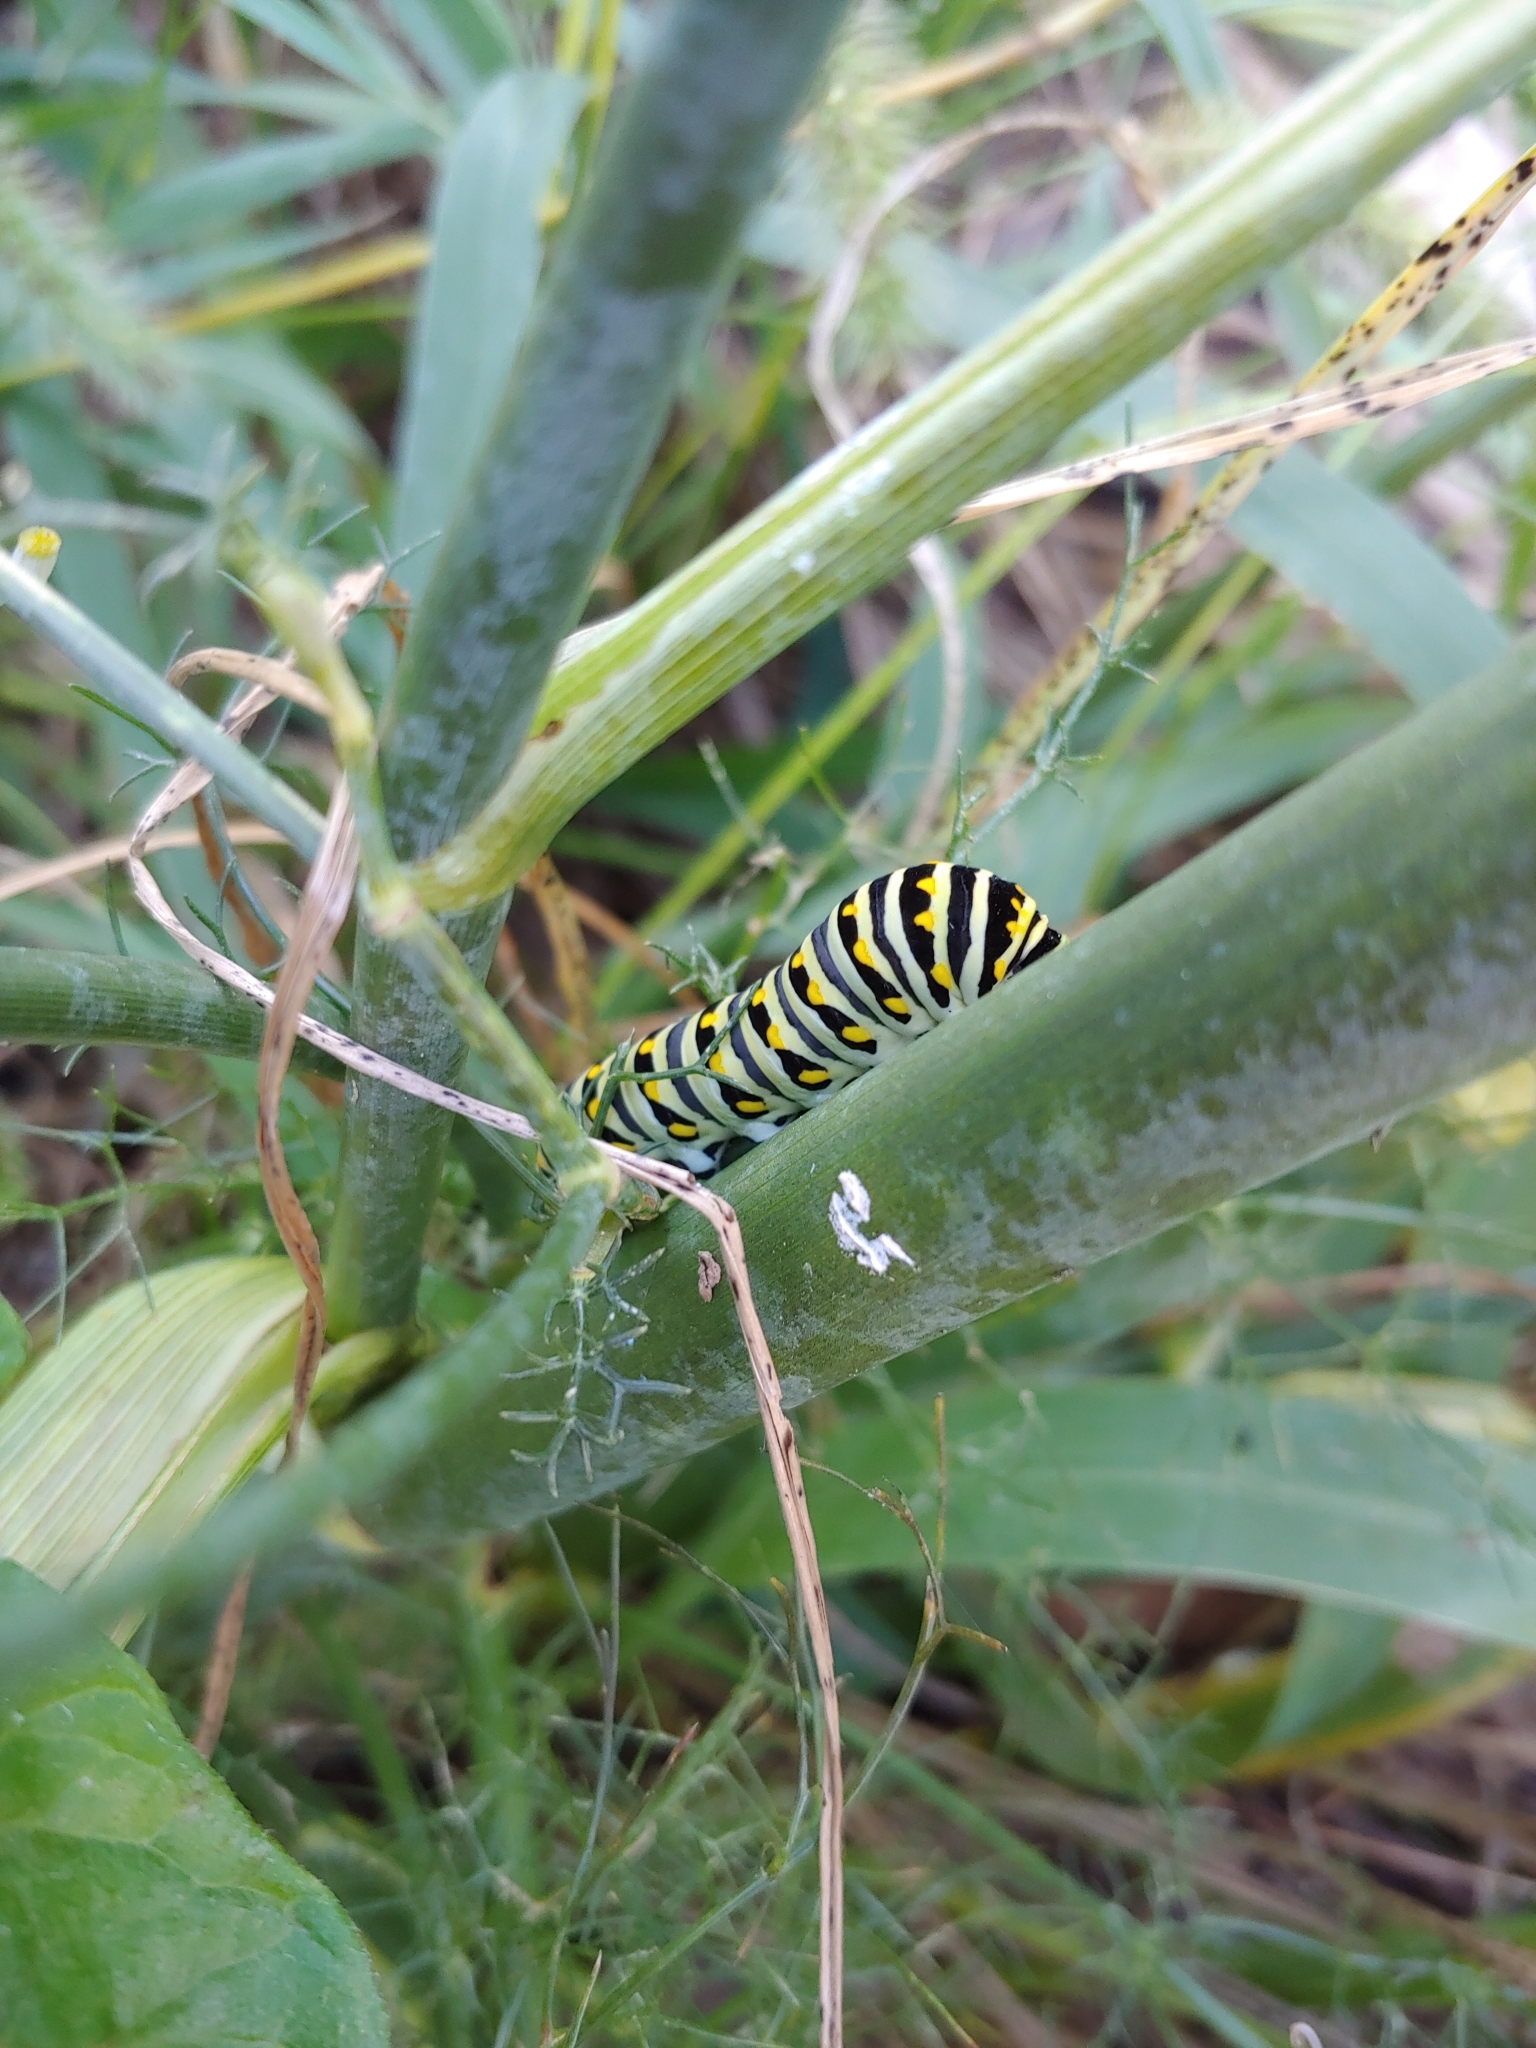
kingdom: Animalia
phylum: Arthropoda
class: Insecta
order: Lepidoptera
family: Papilionidae
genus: Papilio
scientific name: Papilio polyxenes
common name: Black swallowtail
